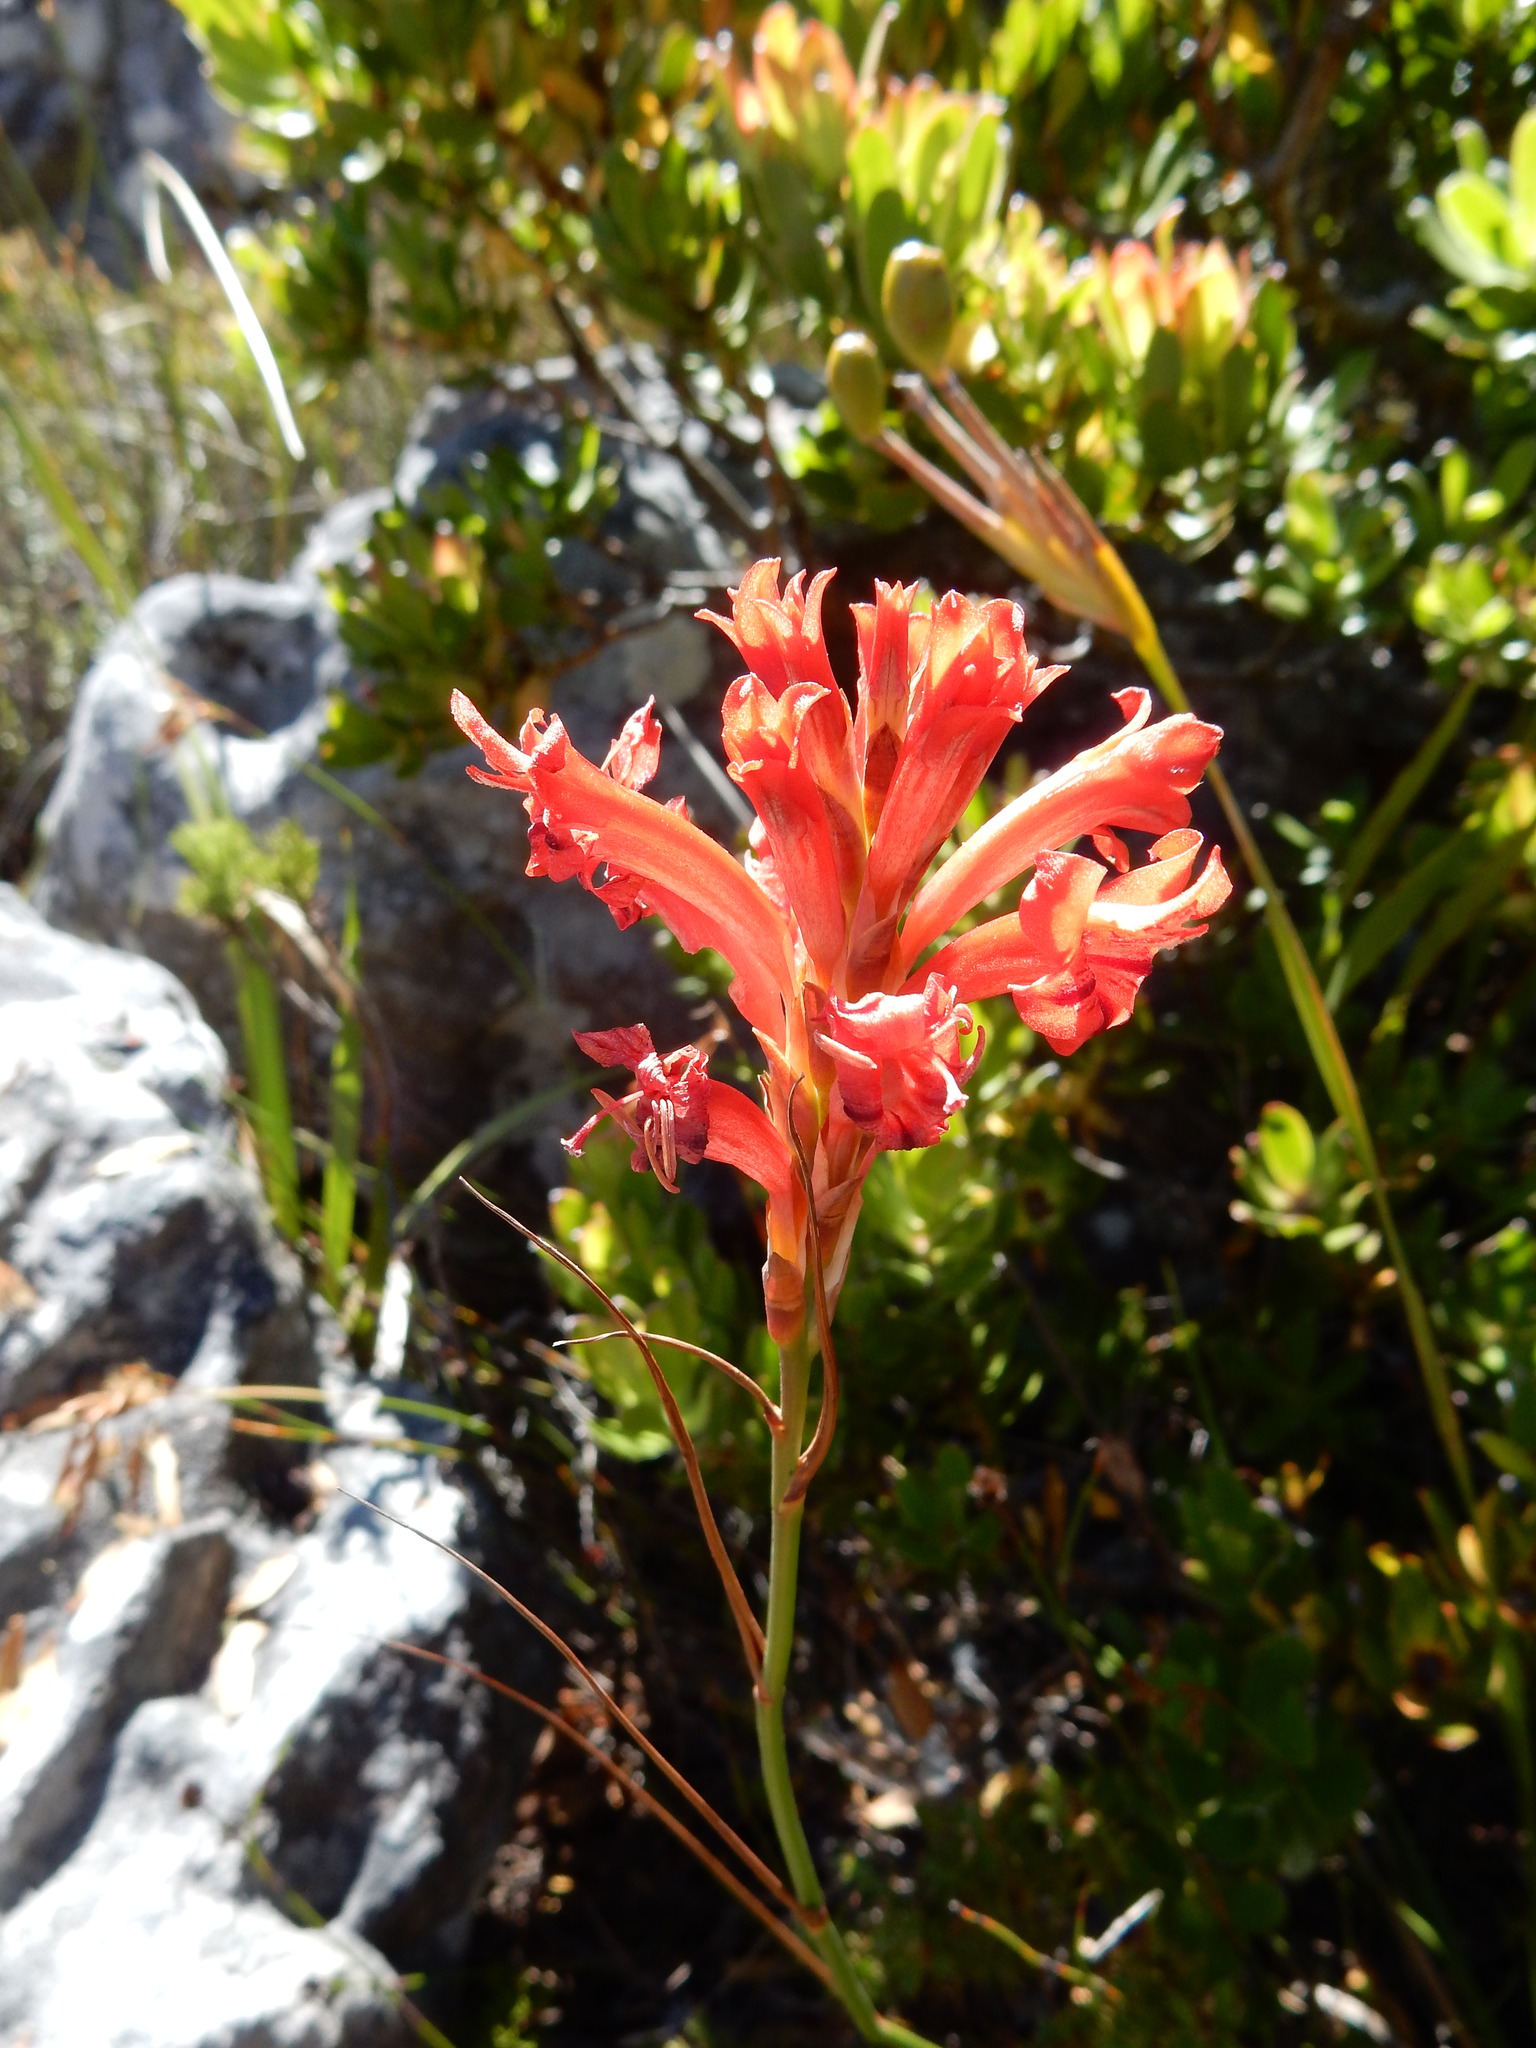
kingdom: Plantae
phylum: Tracheophyta
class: Liliopsida
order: Asparagales
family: Iridaceae
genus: Tritoniopsis
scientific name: Tritoniopsis triticea
